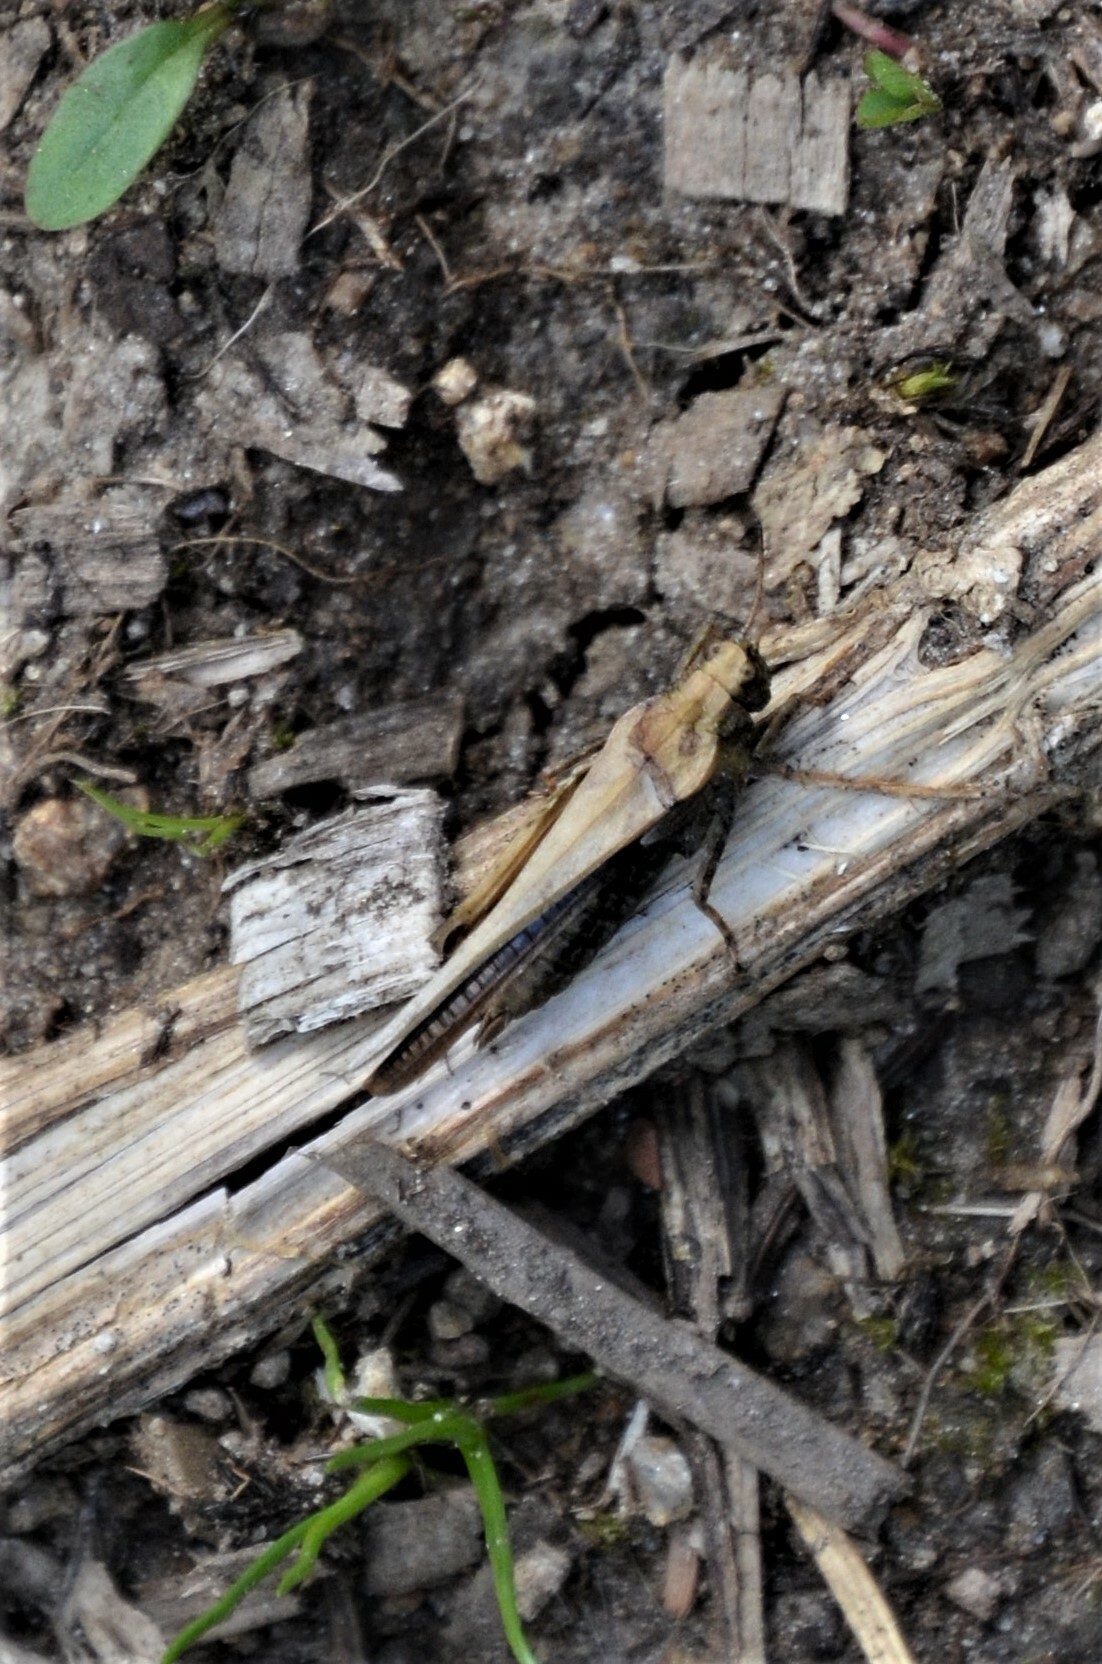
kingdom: Animalia
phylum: Arthropoda
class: Insecta
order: Orthoptera
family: Tetrigidae
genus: Tetrix
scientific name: Tetrix subulata
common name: Slender ground-hopper
